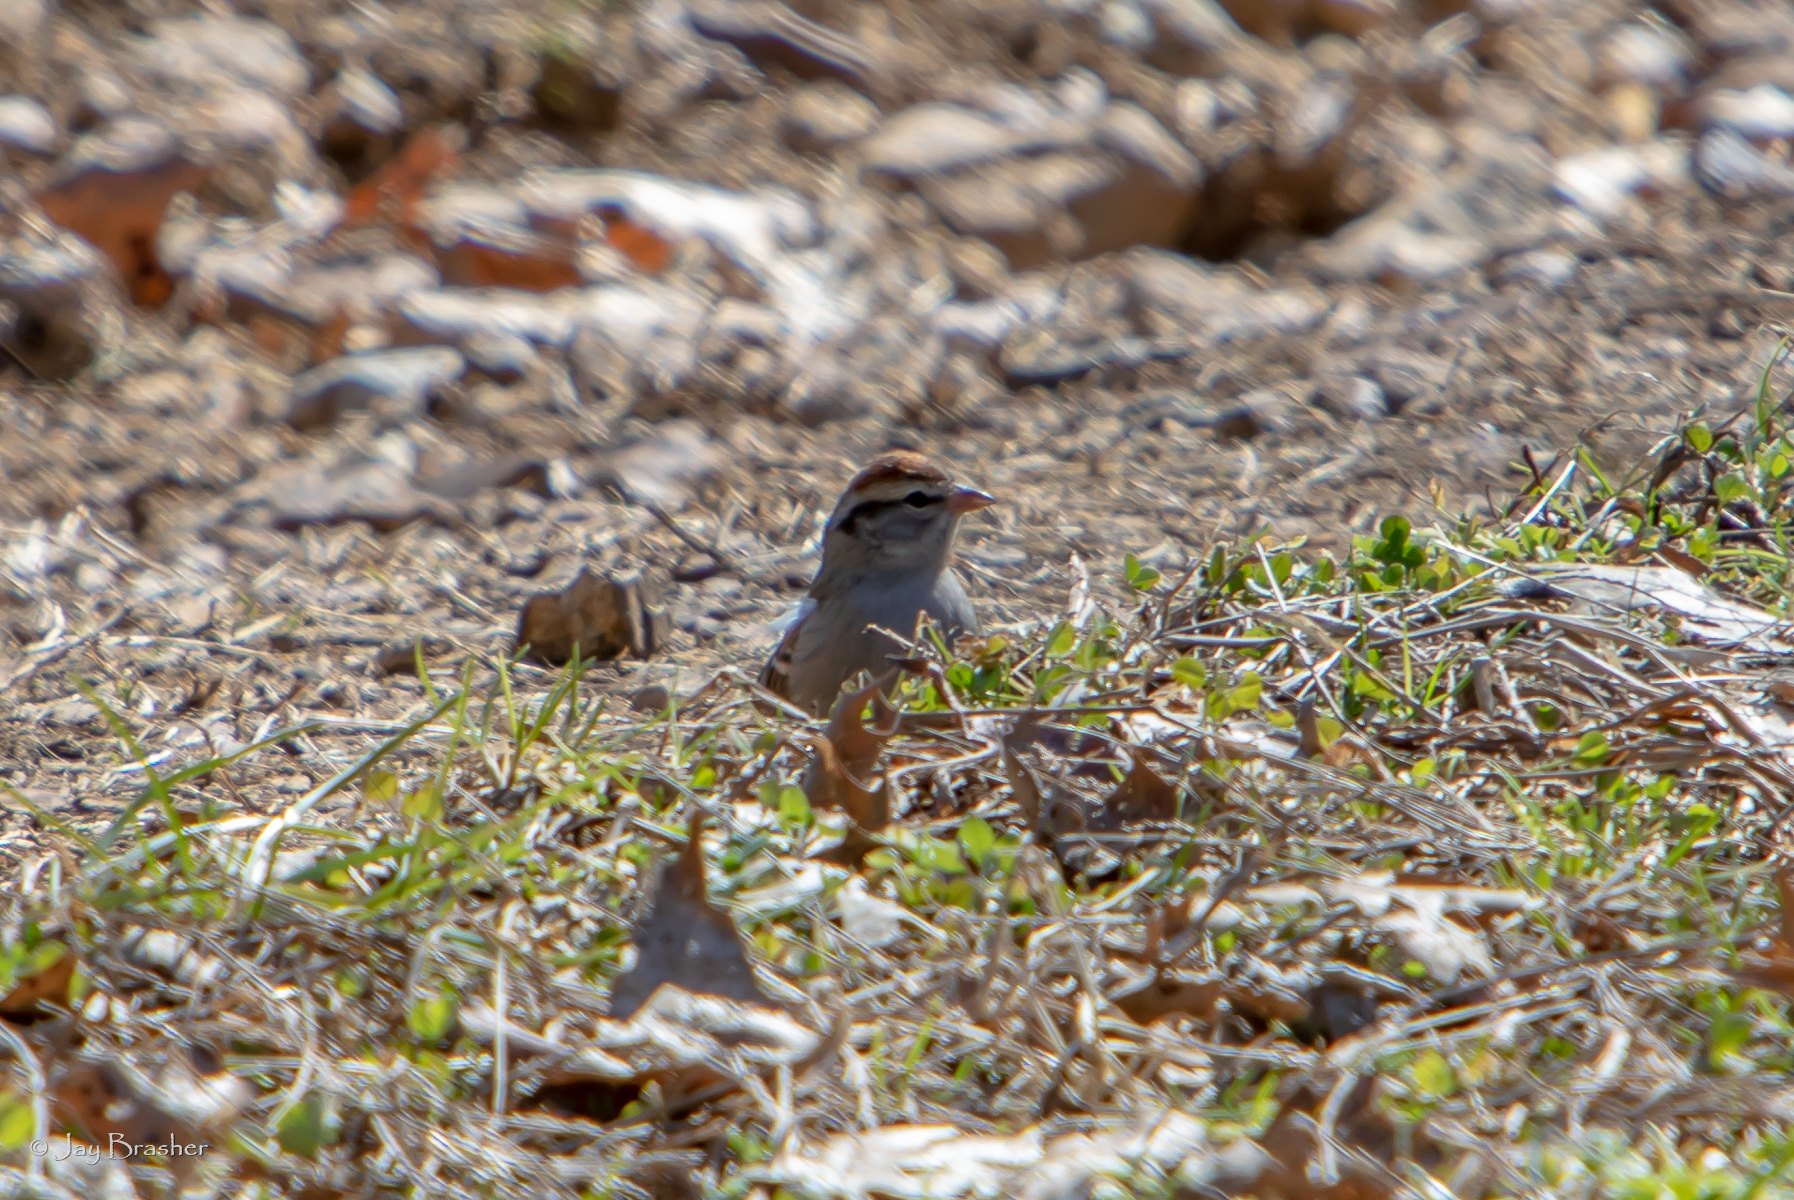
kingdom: Animalia
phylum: Chordata
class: Aves
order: Passeriformes
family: Passerellidae
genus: Spizella
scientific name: Spizella passerina
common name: Chipping sparrow
